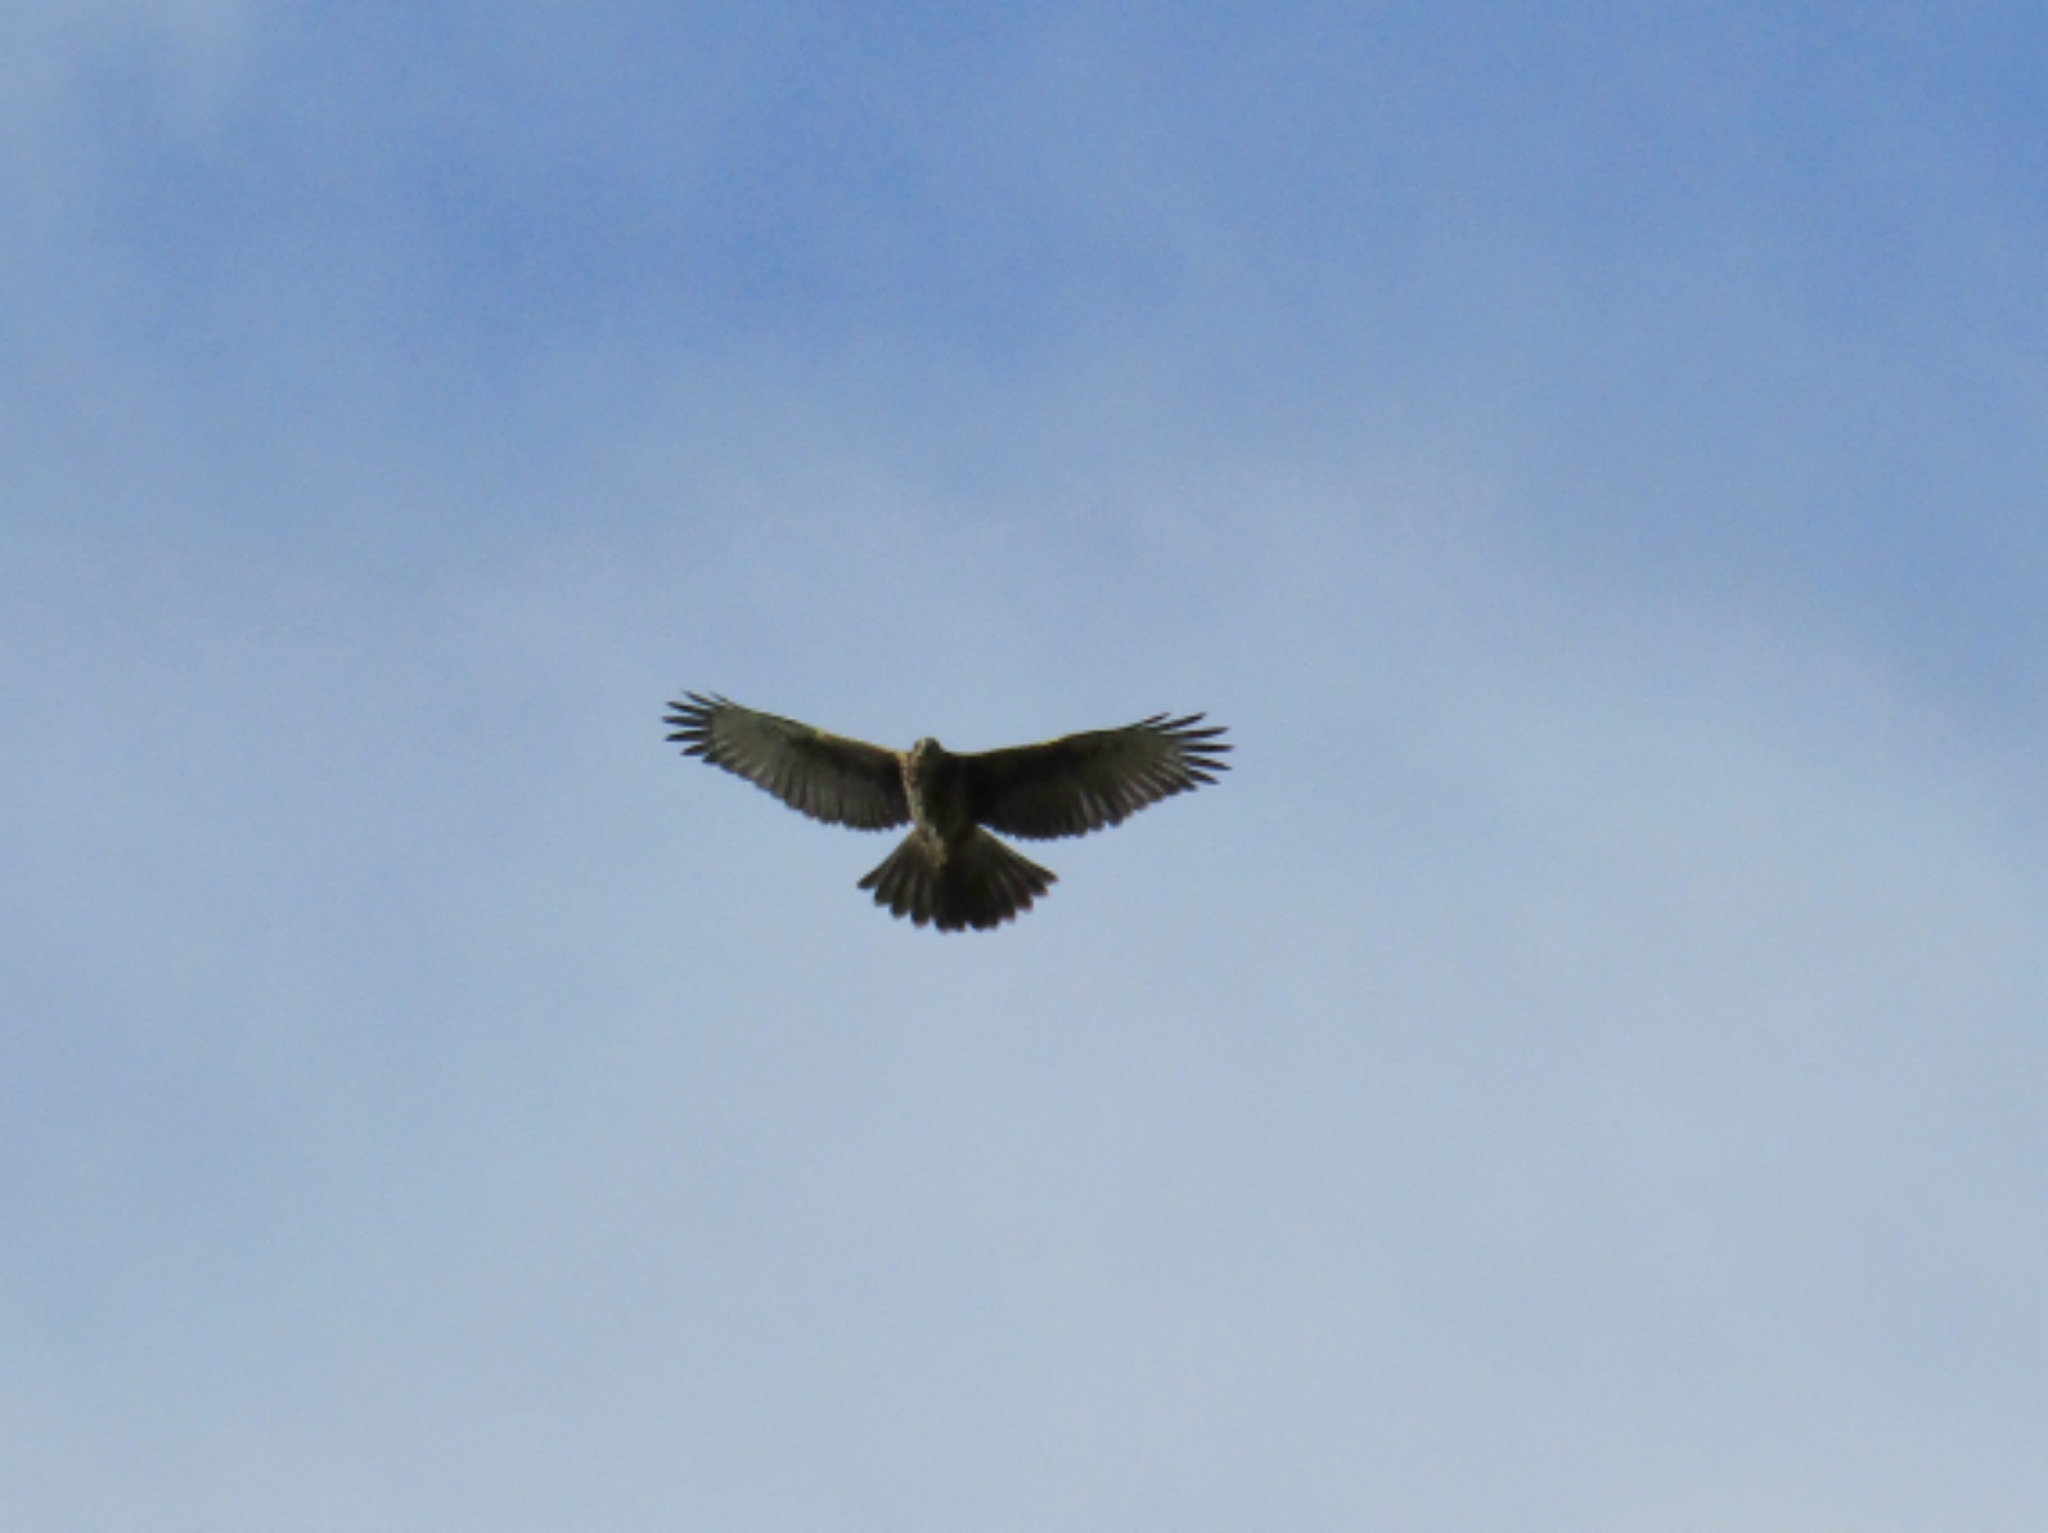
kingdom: Animalia
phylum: Chordata
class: Aves
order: Accipitriformes
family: Accipitridae
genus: Parabuteo
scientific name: Parabuteo unicinctus
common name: Harris's hawk
